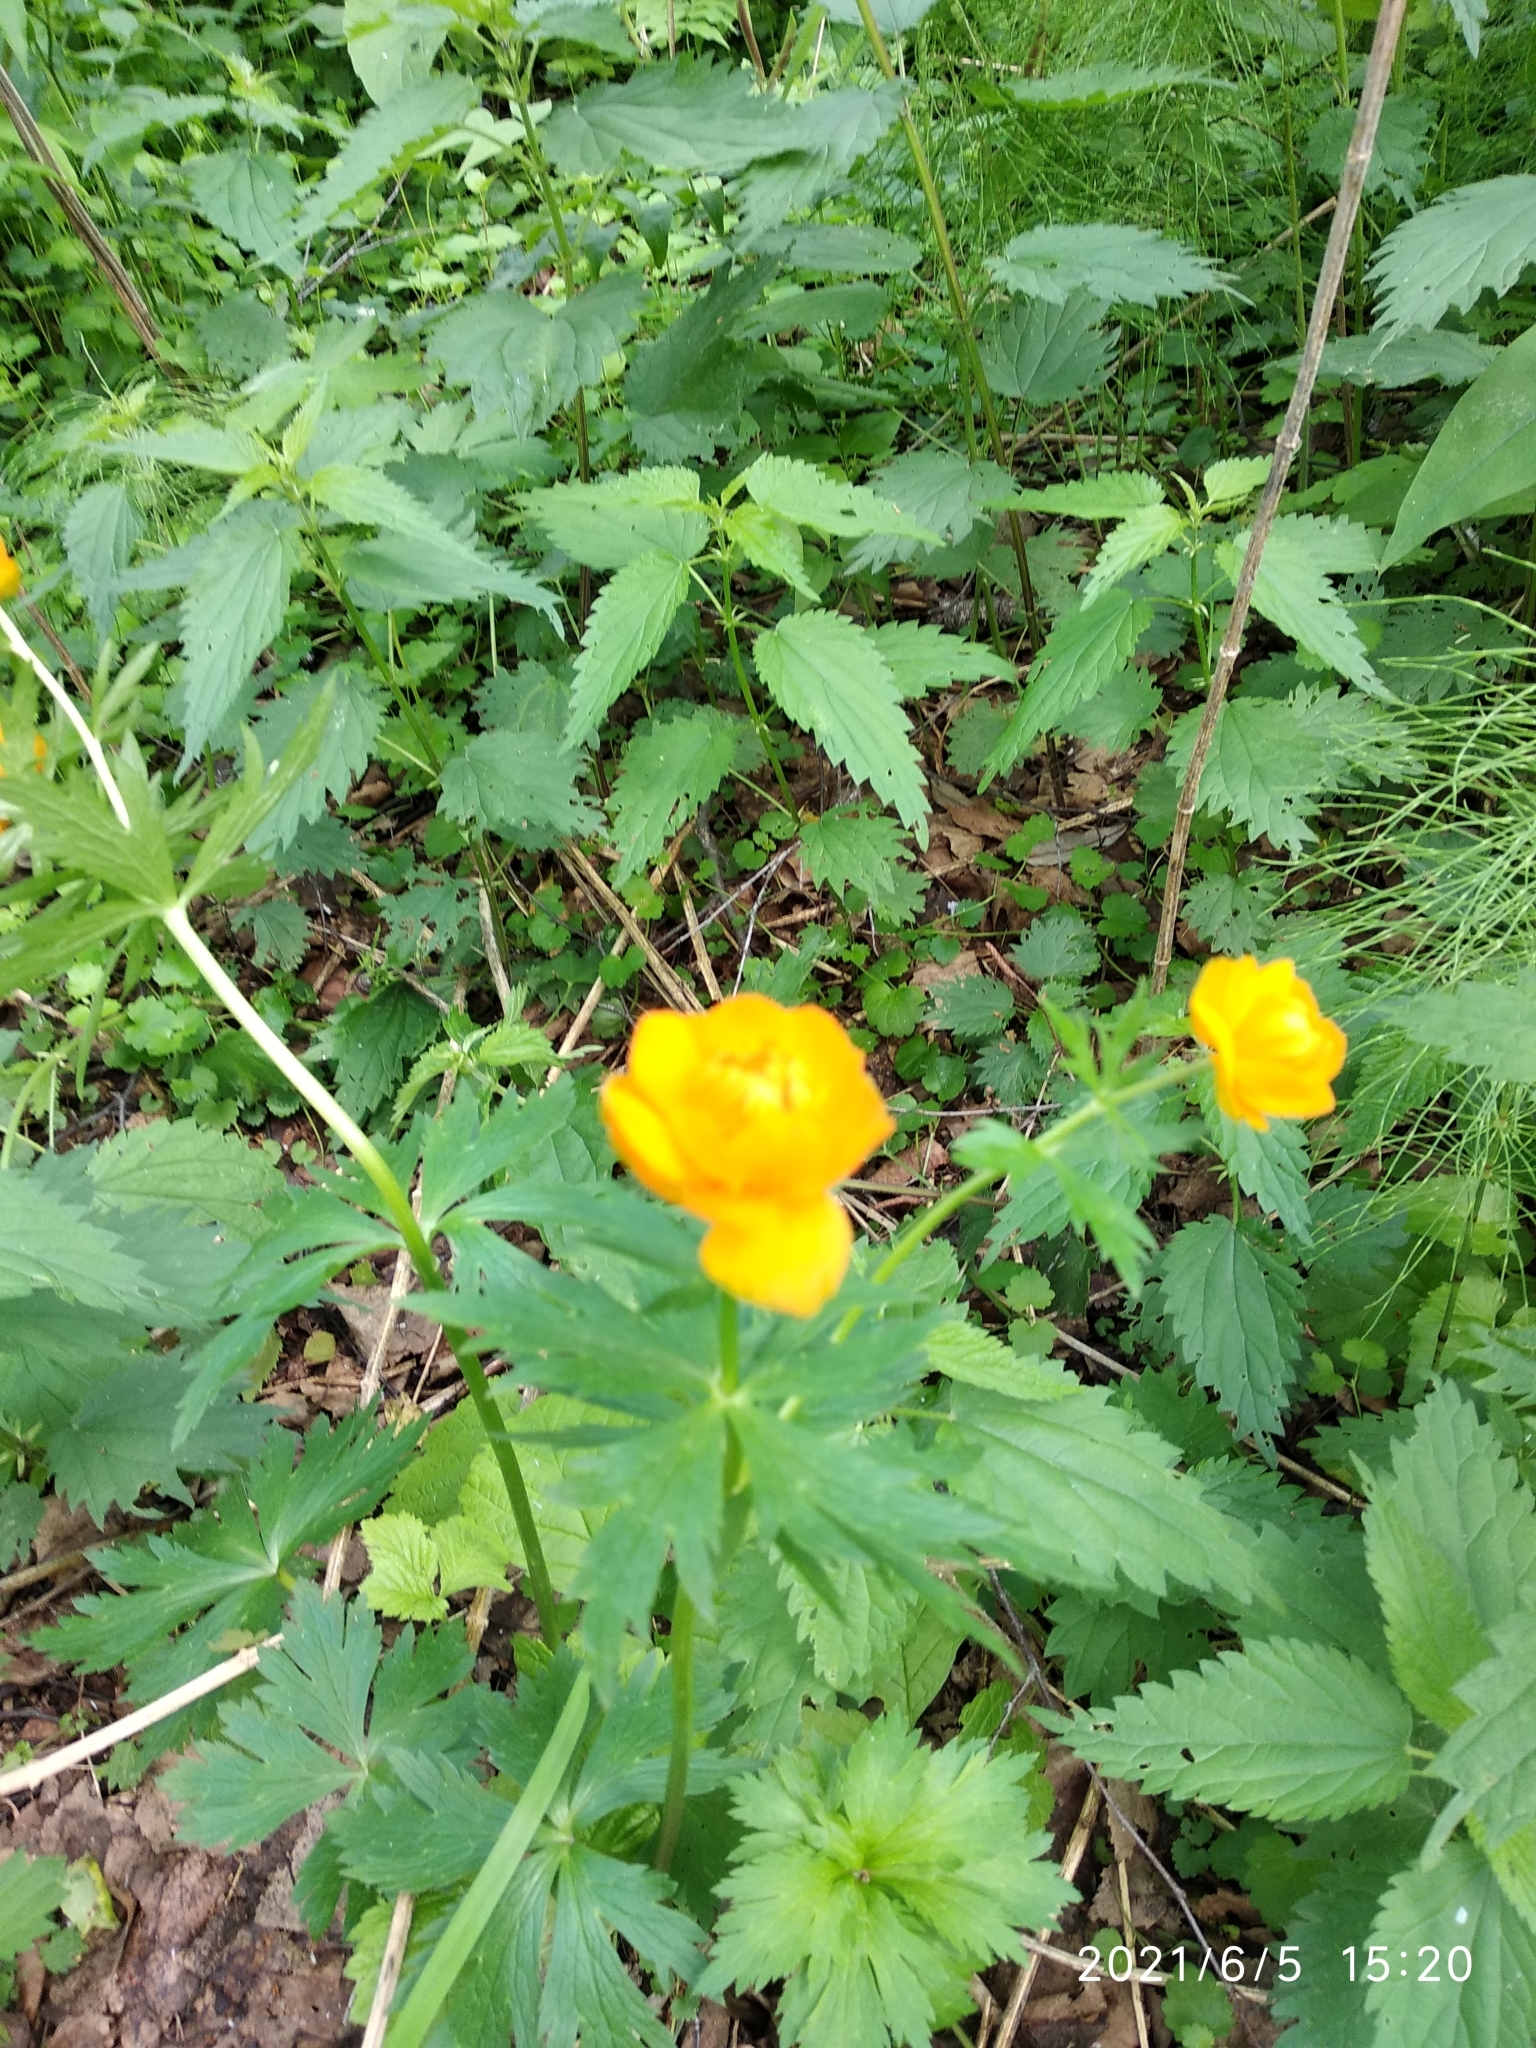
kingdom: Plantae
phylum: Tracheophyta
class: Magnoliopsida
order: Ranunculales
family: Ranunculaceae
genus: Trollius
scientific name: Trollius asiaticus
